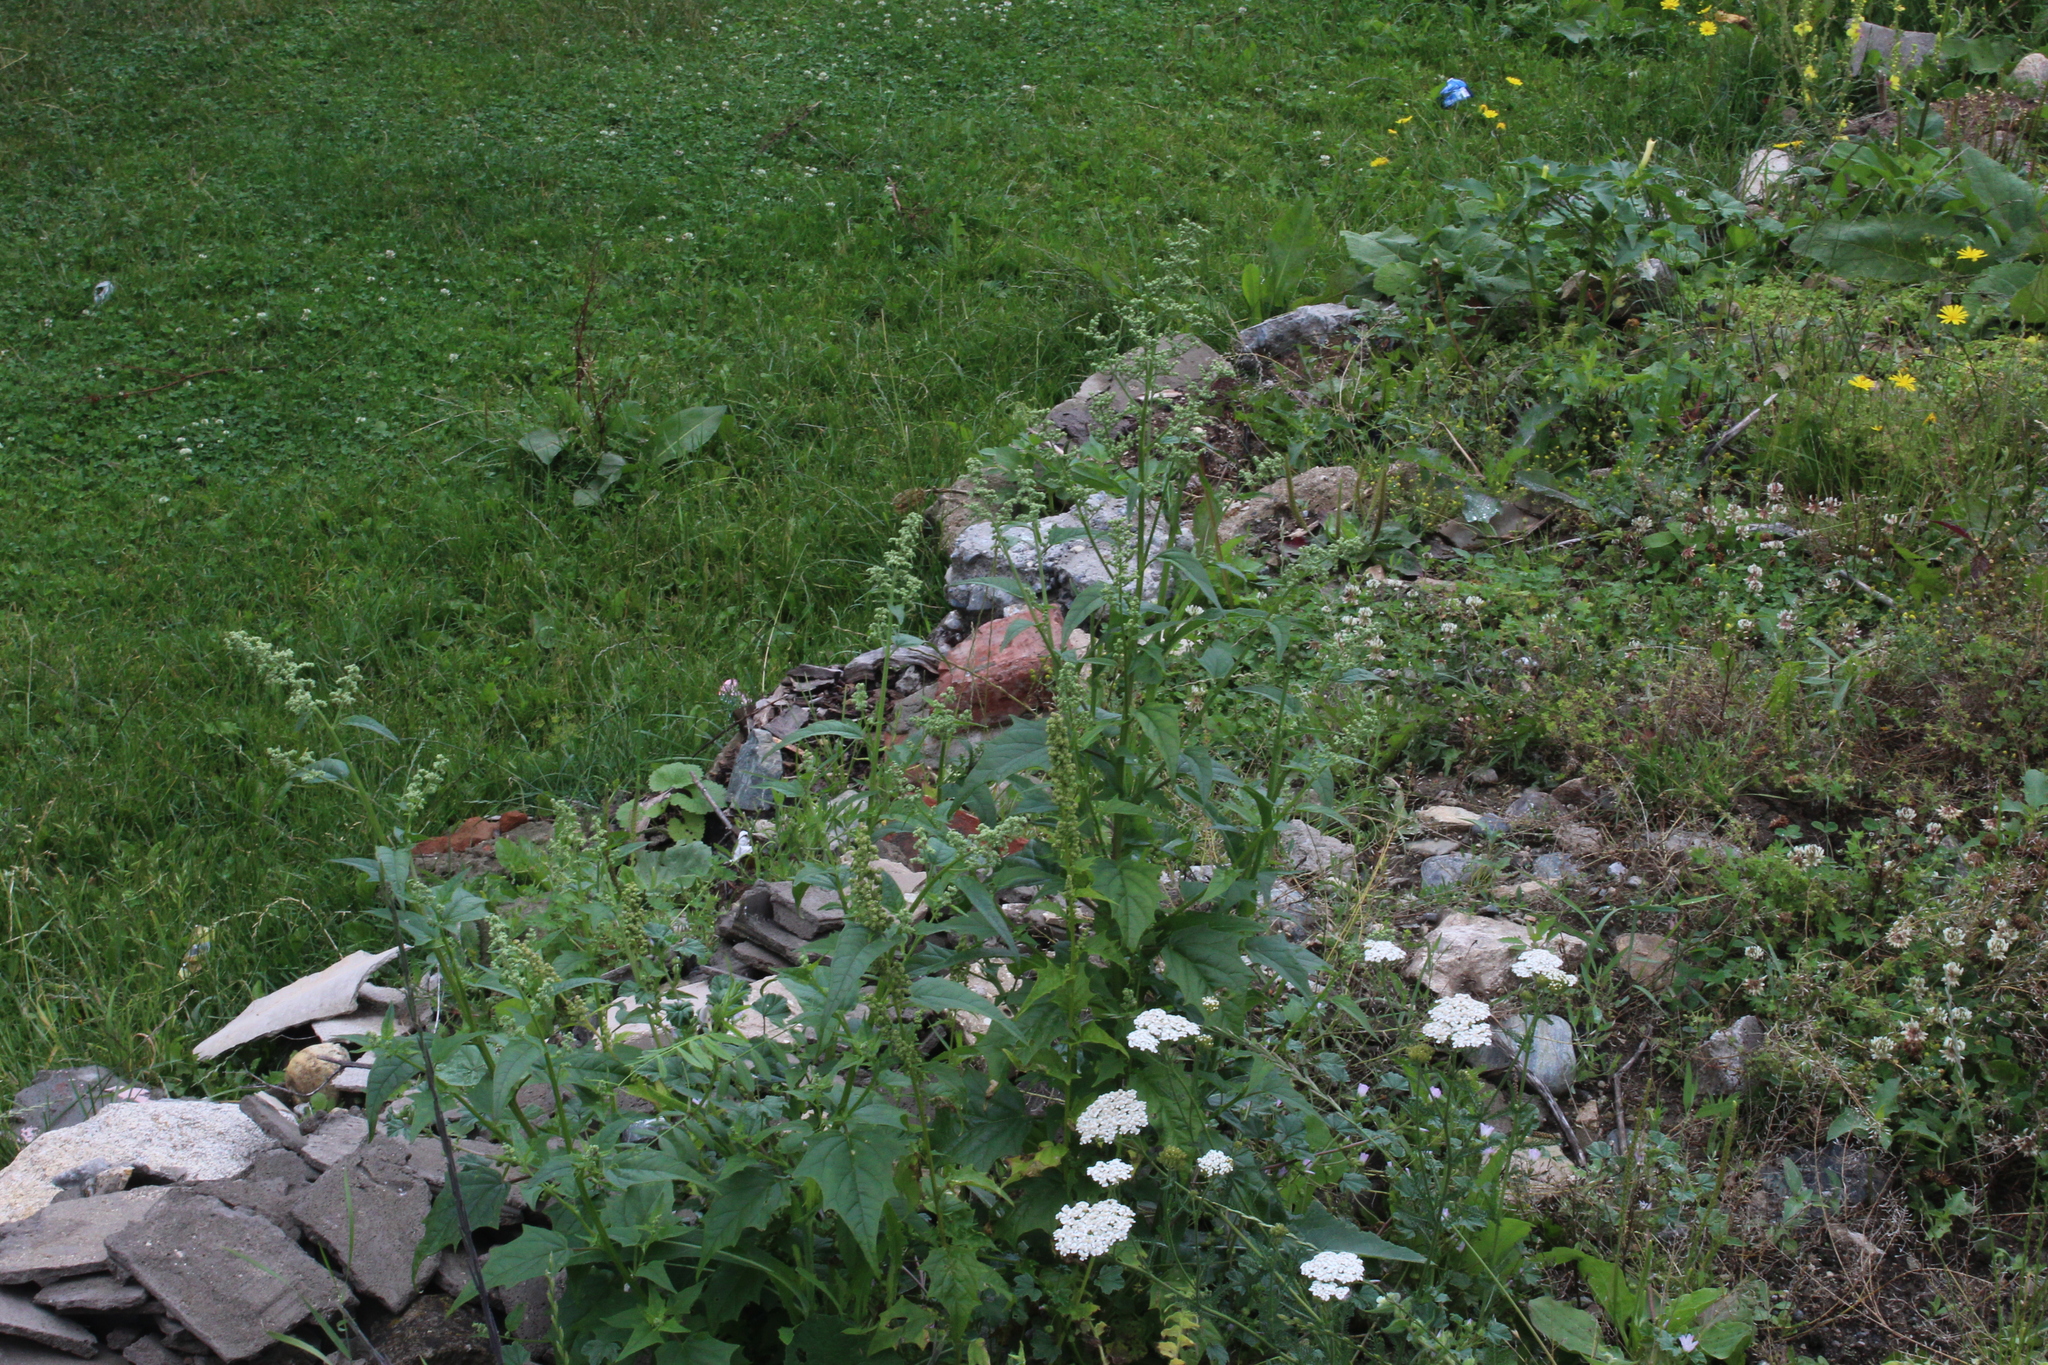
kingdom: Plantae
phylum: Tracheophyta
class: Magnoliopsida
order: Caryophyllales
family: Amaranthaceae
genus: Chenopodiastrum
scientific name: Chenopodiastrum hybridum
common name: Mapleleaf goosefoot
